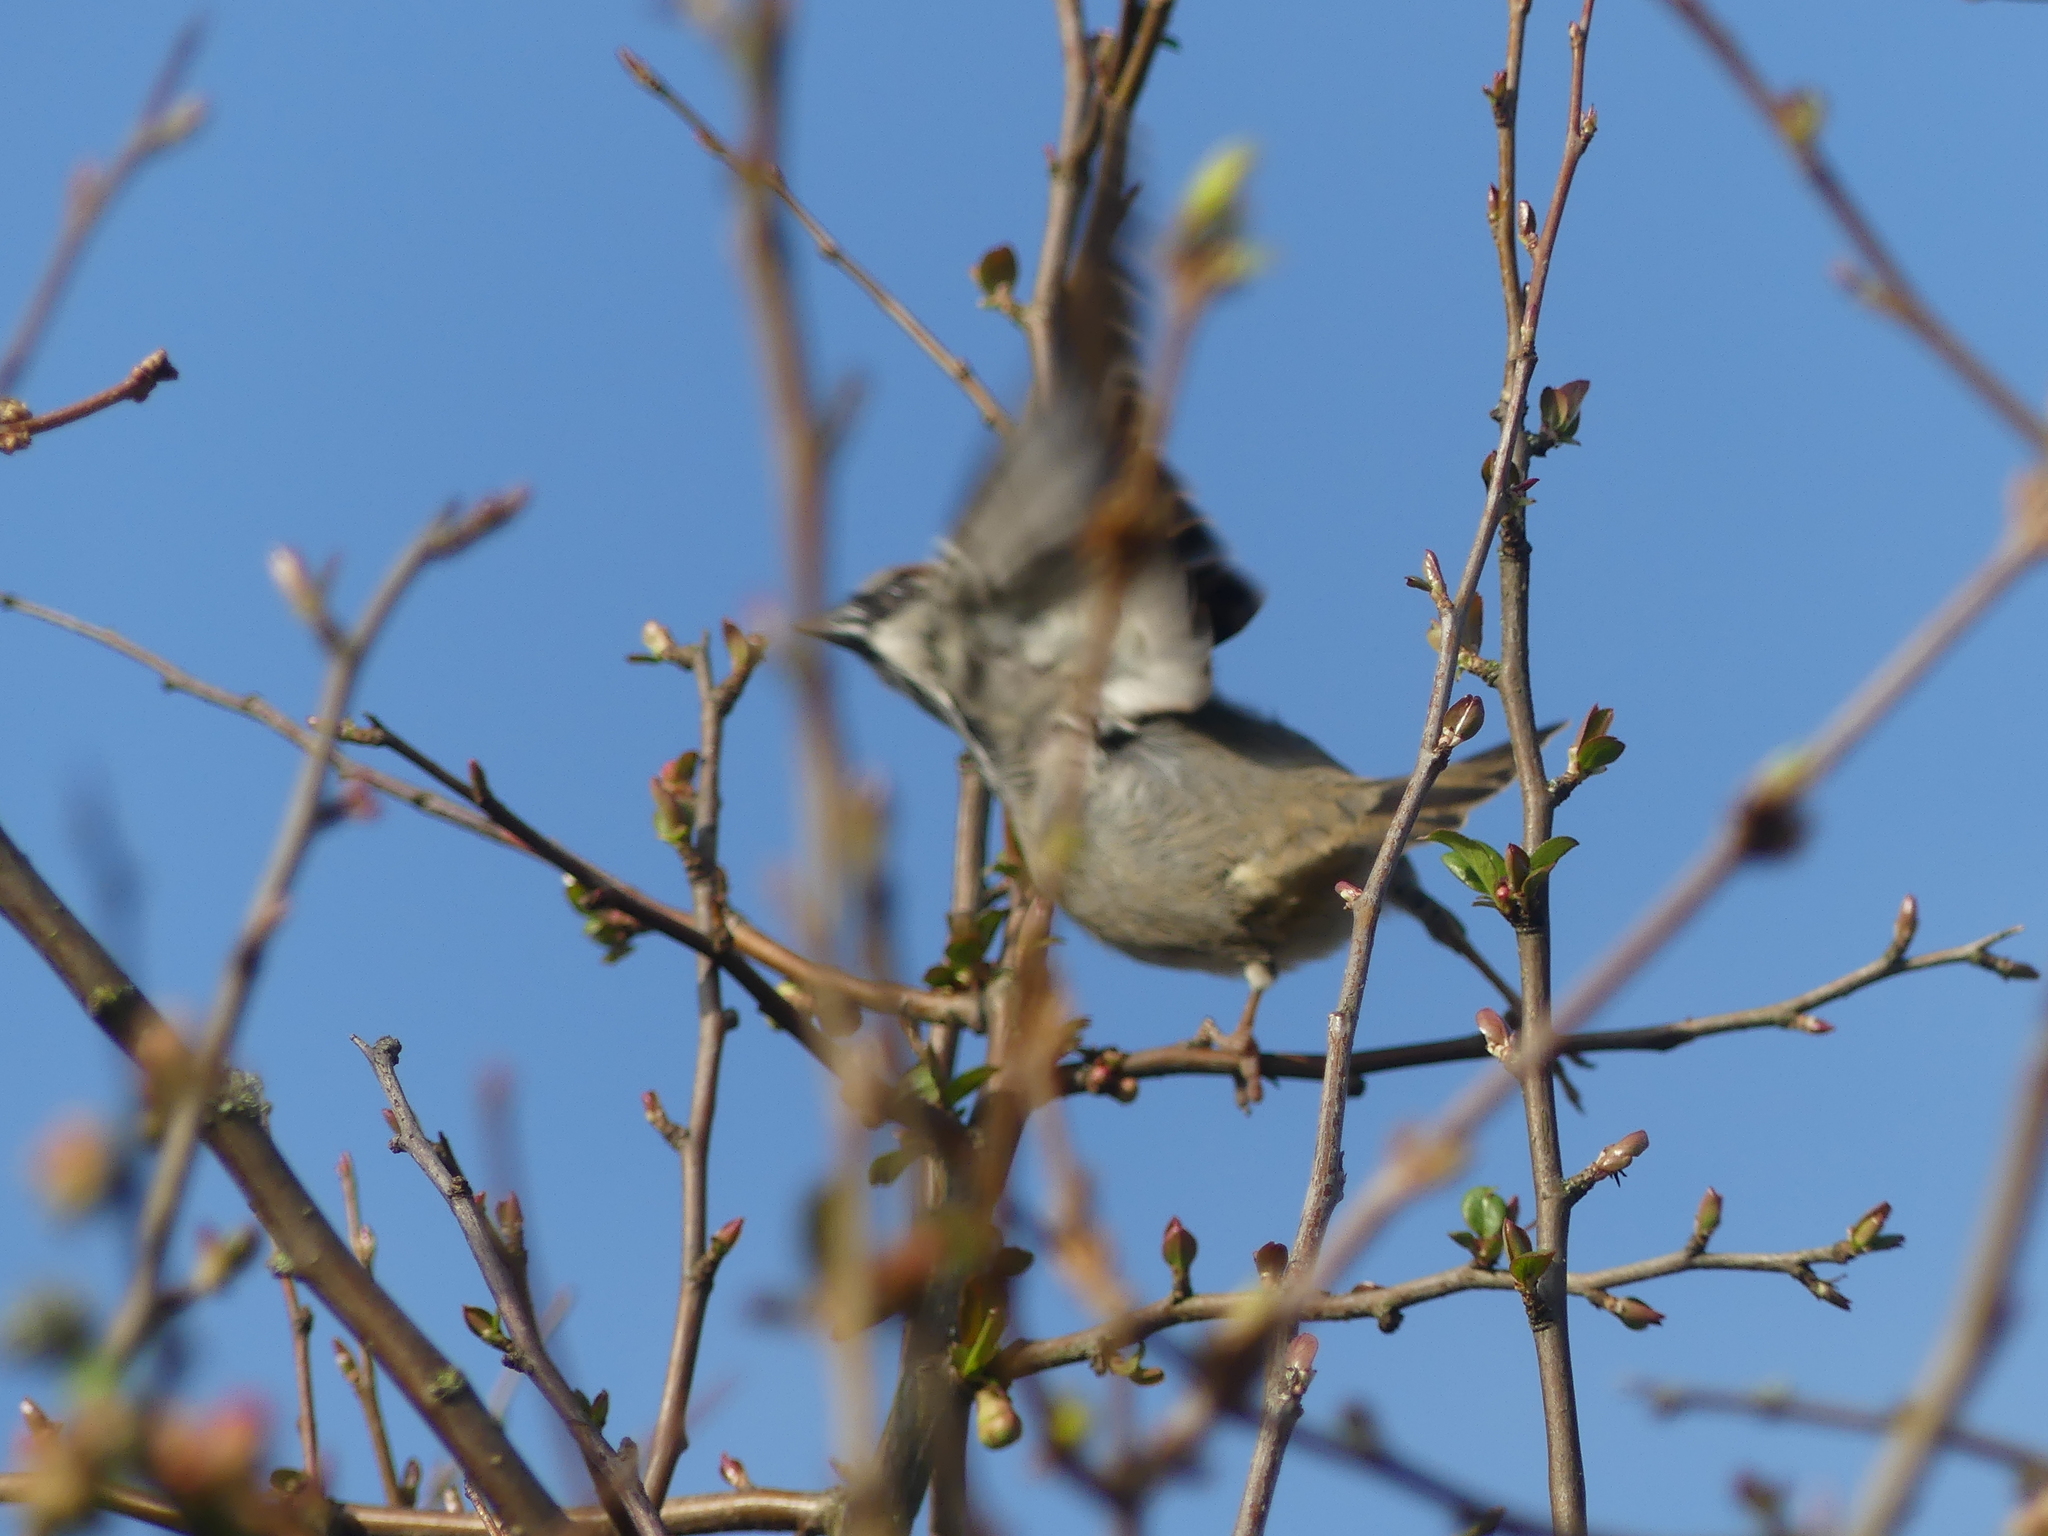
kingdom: Animalia
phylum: Chordata
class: Aves
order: Passeriformes
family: Passeridae
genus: Passer
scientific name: Passer domesticus
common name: House sparrow
